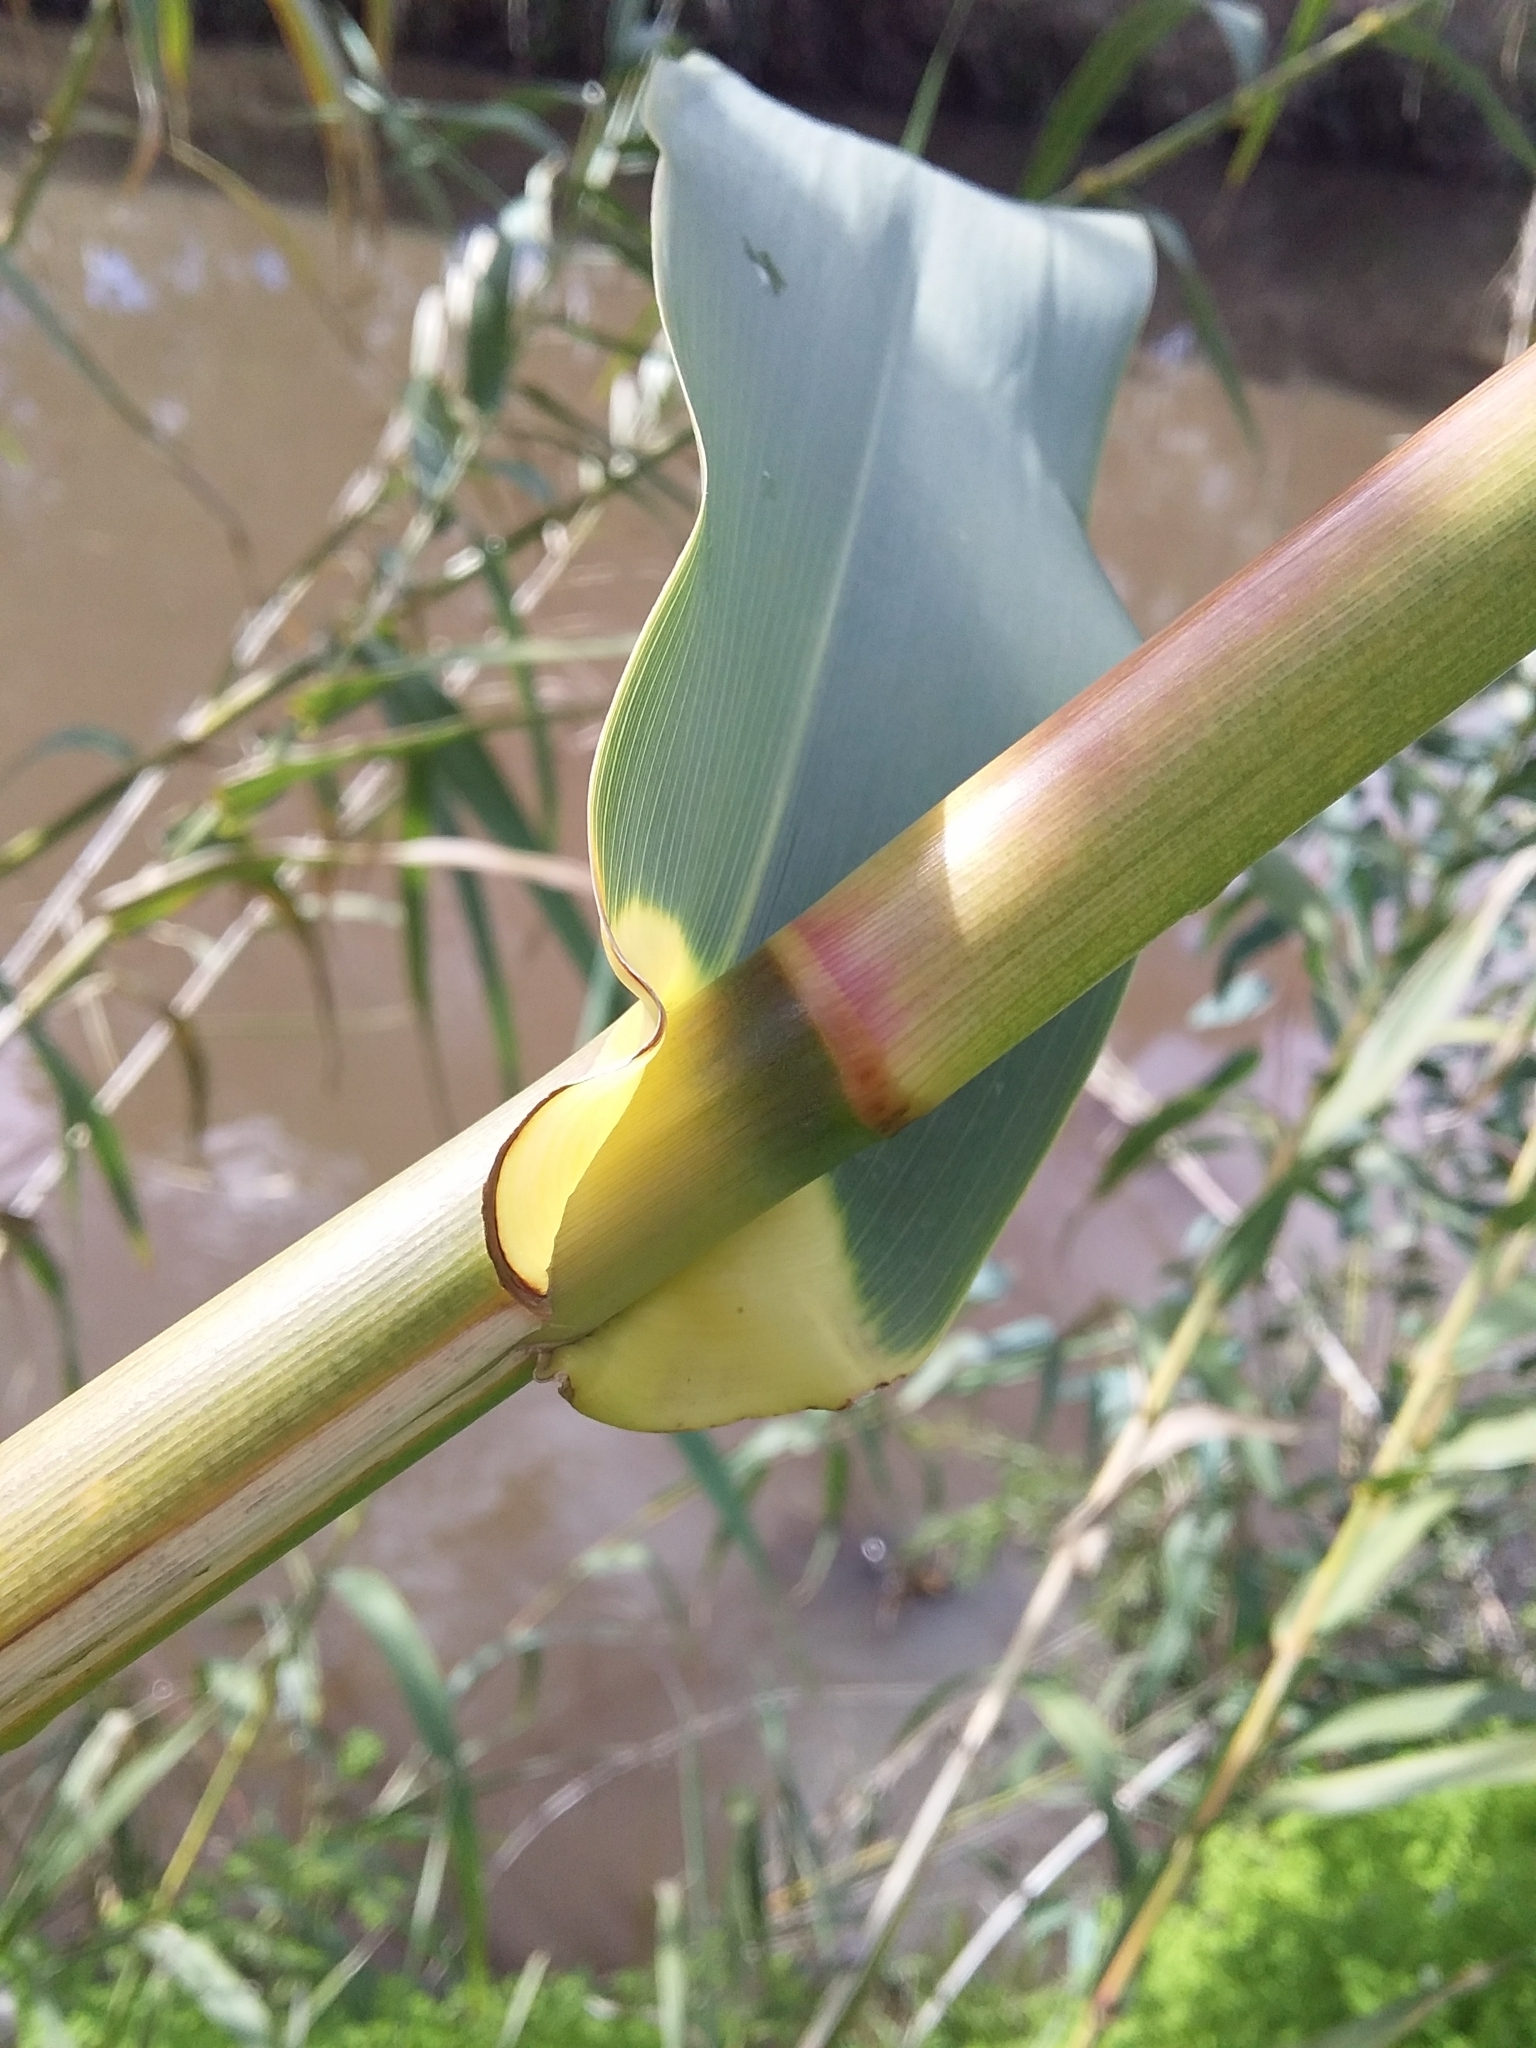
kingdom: Plantae
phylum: Tracheophyta
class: Liliopsida
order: Poales
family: Poaceae
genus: Arundo
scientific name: Arundo donax
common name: Giant reed
